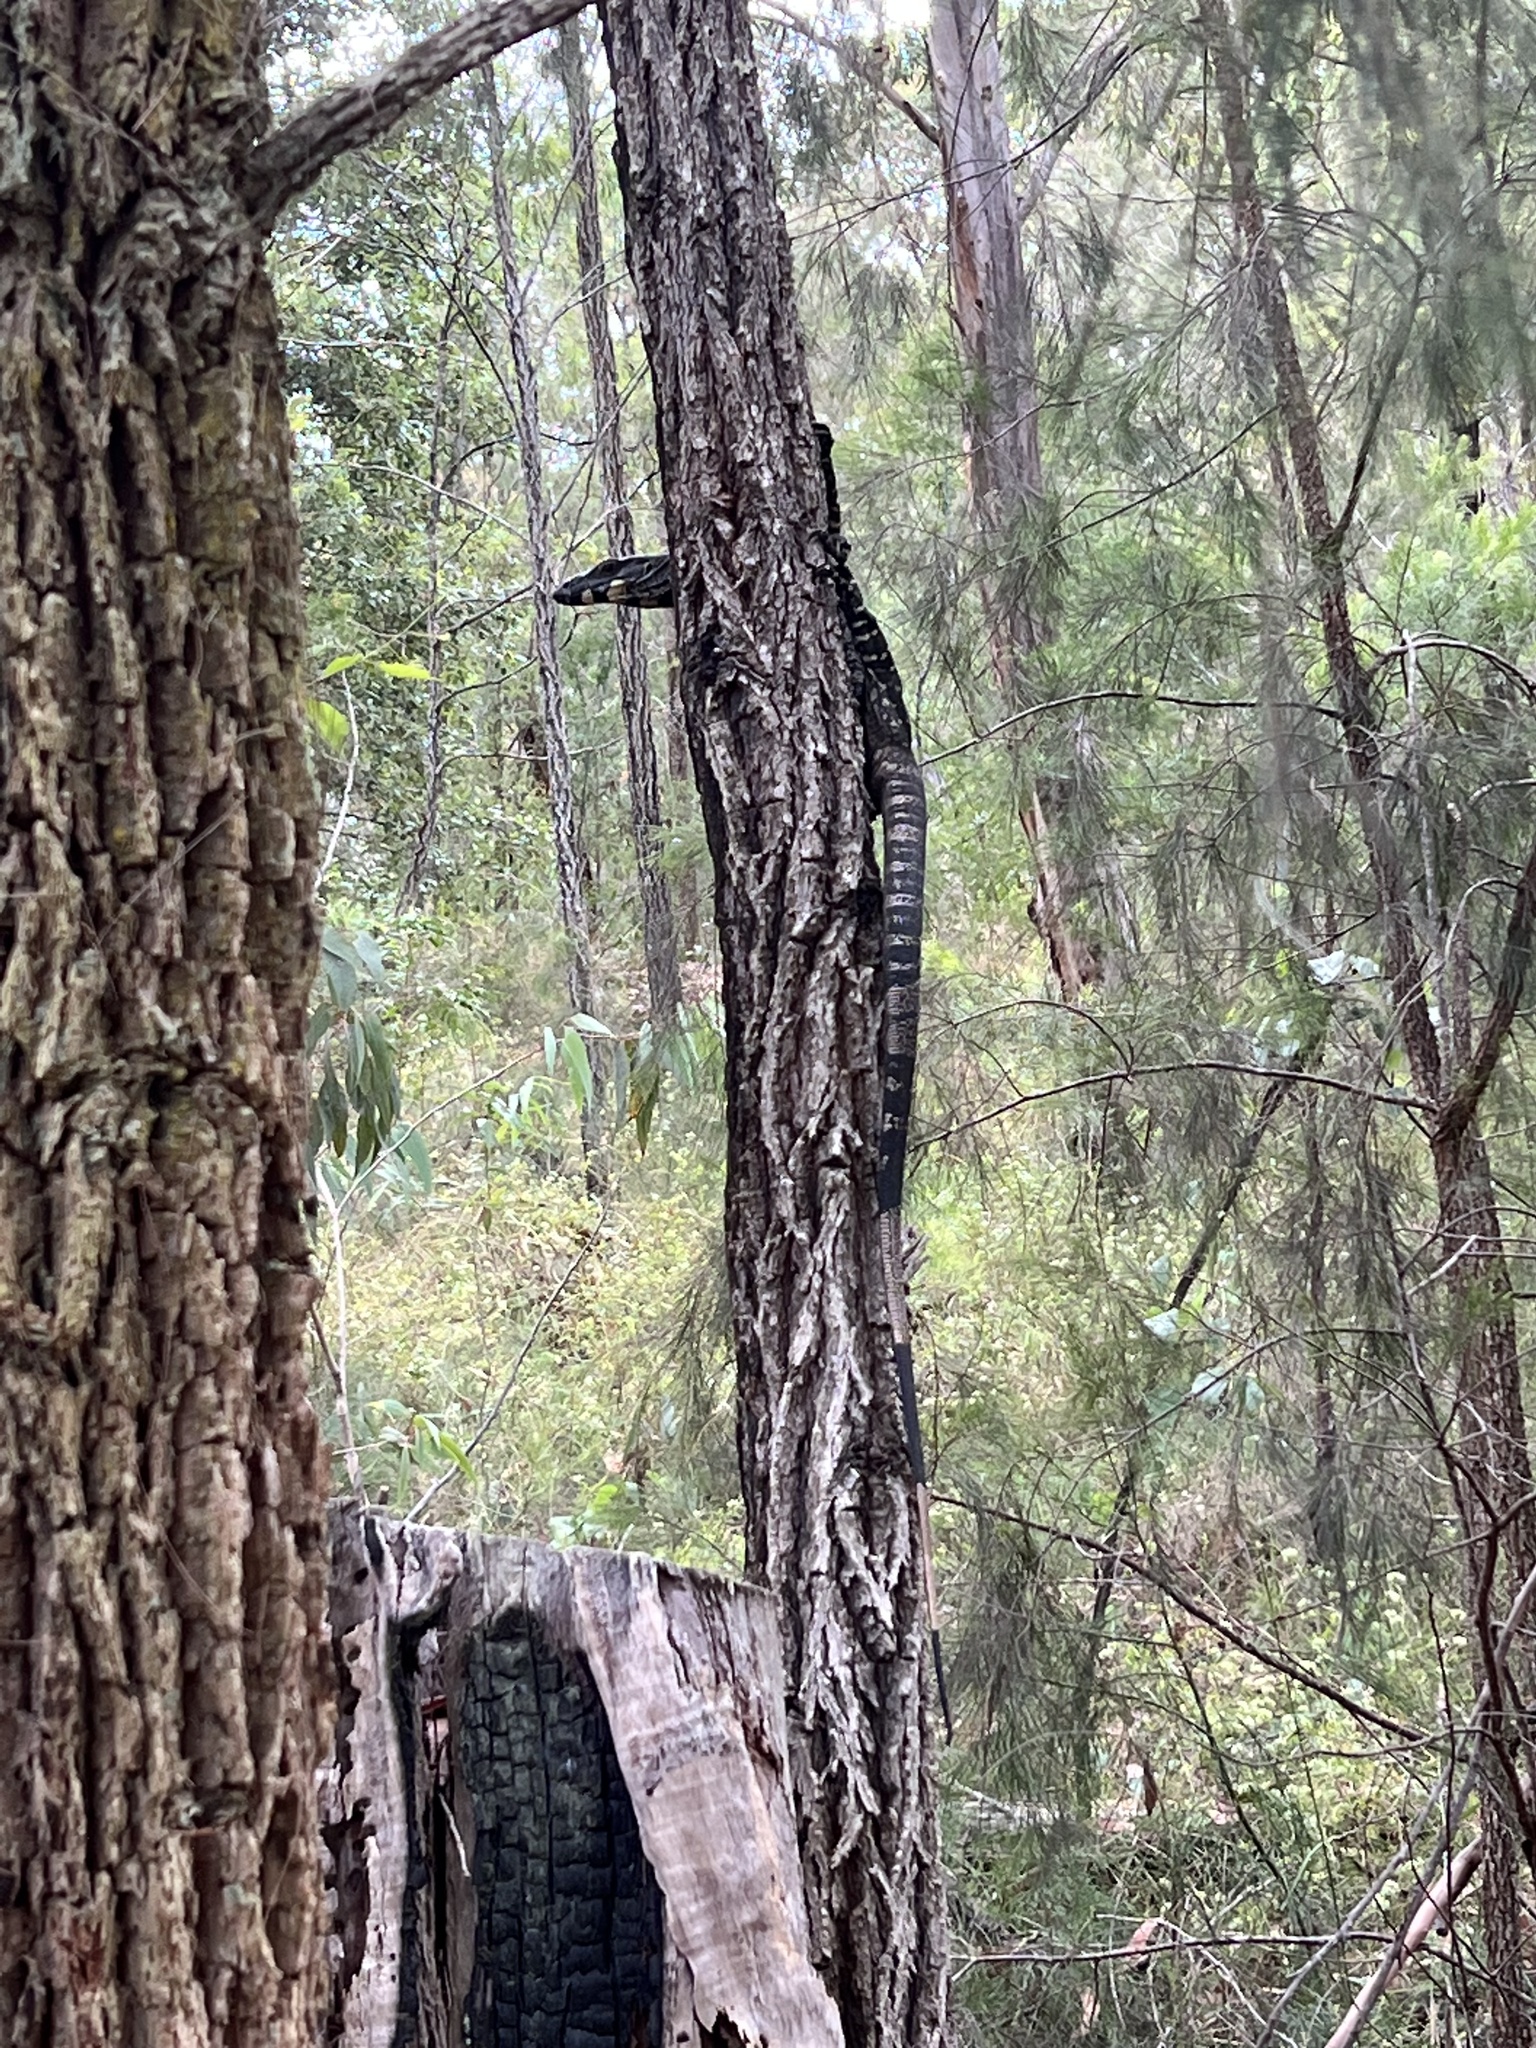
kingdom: Animalia
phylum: Chordata
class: Squamata
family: Varanidae
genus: Varanus
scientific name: Varanus varius
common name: Lace monitor
